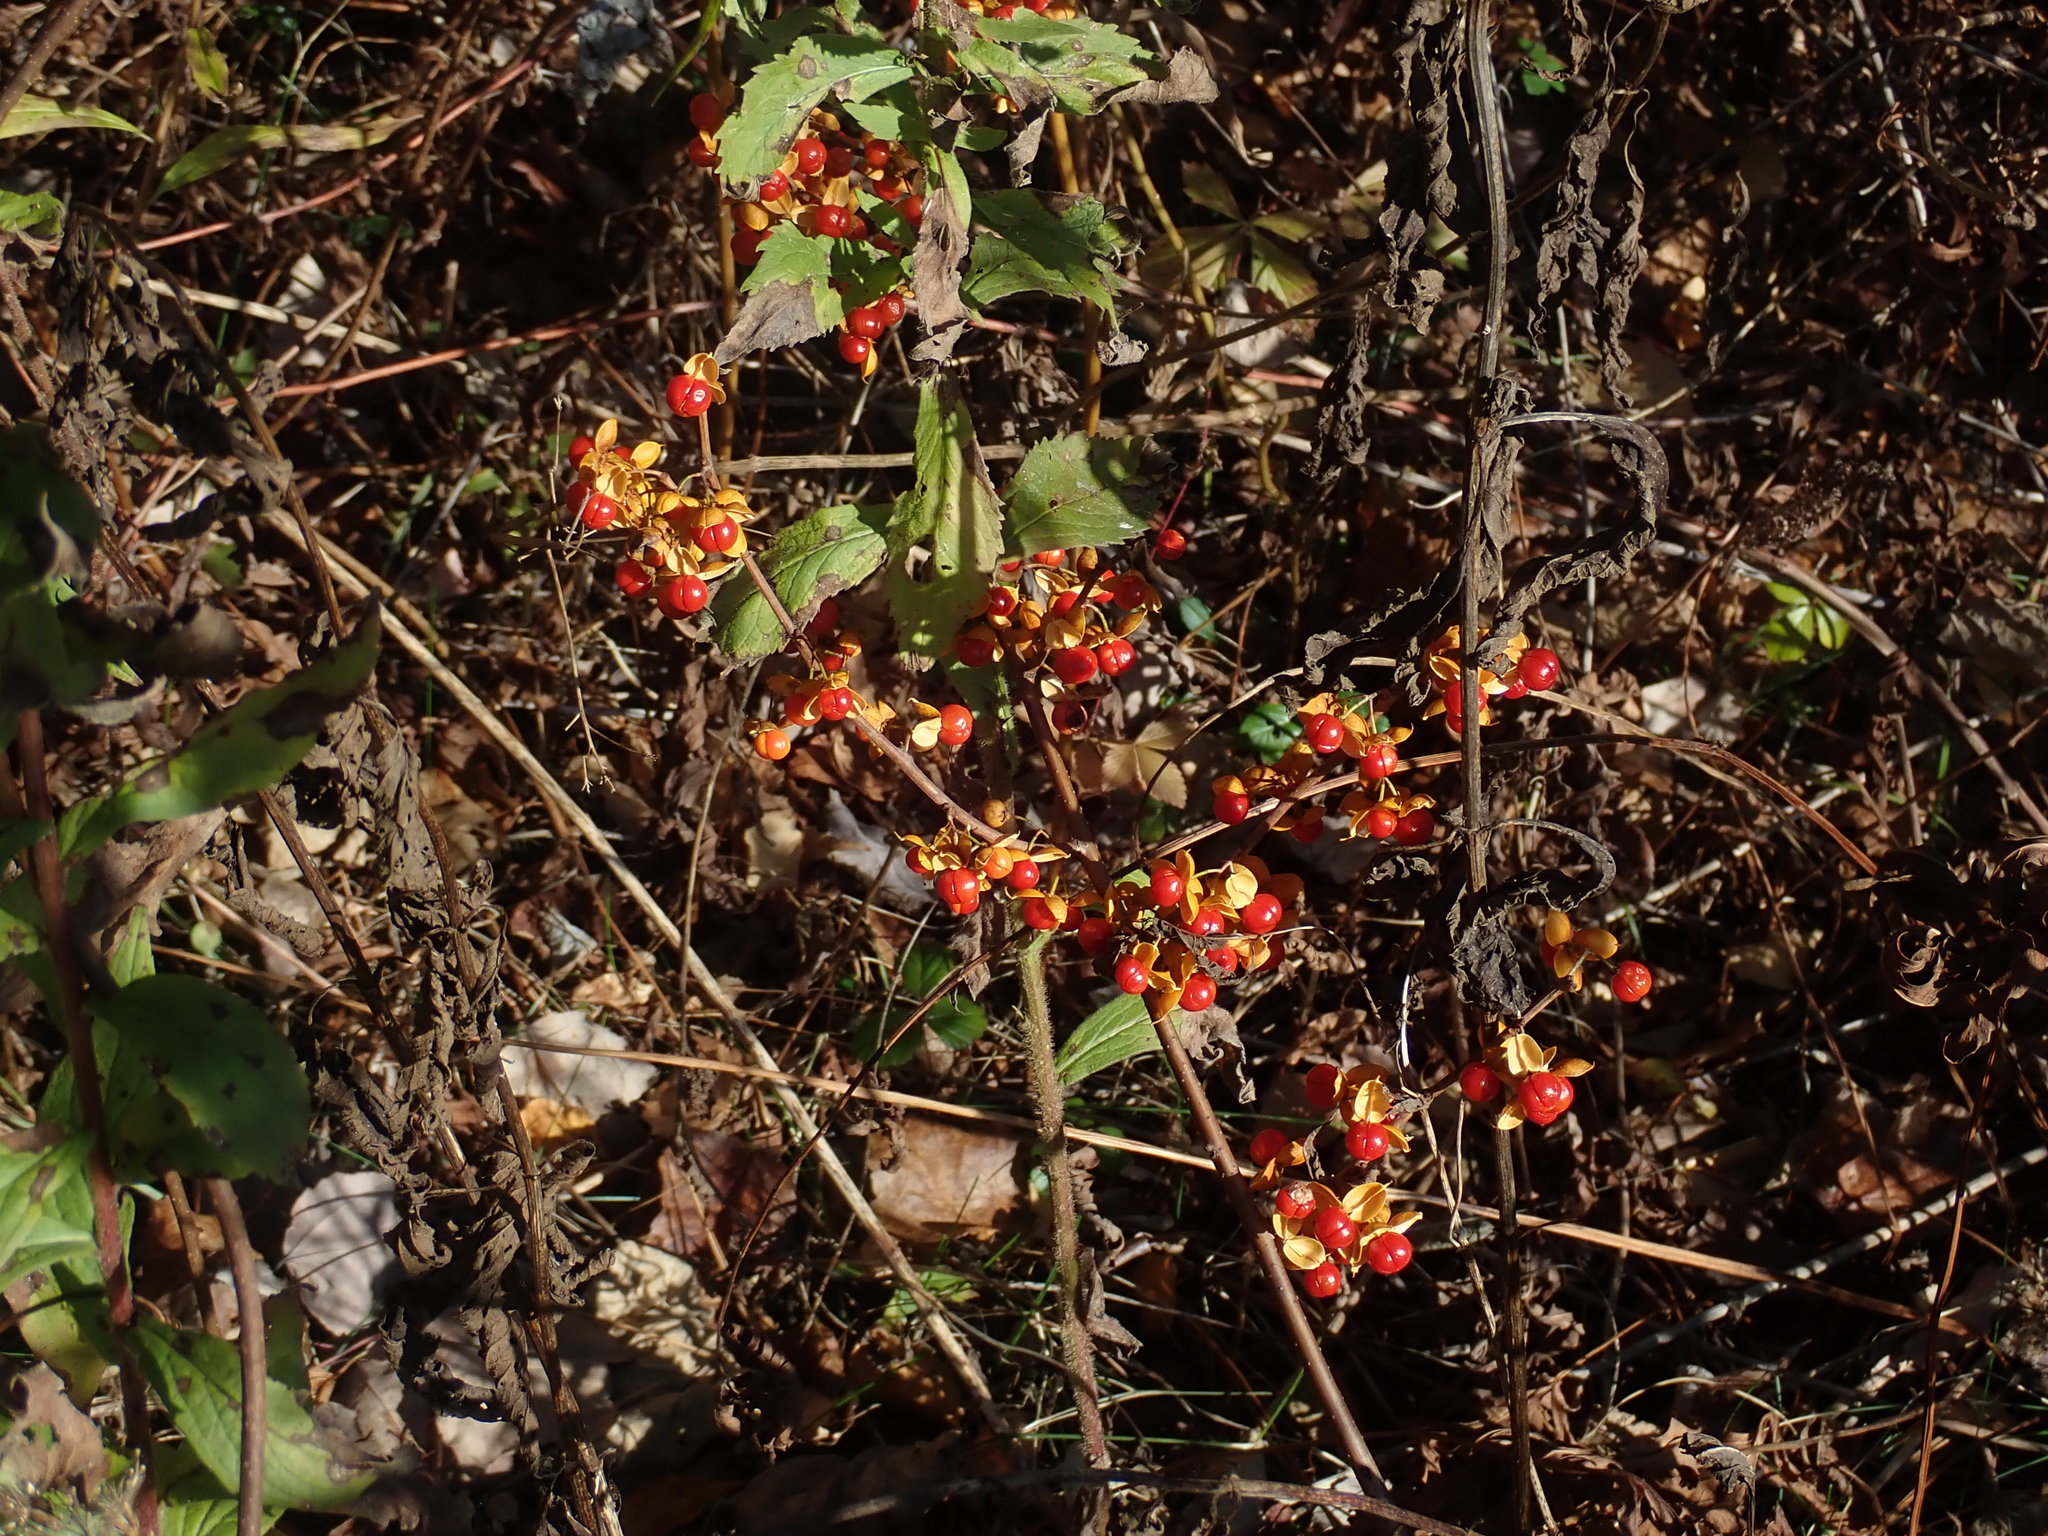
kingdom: Plantae
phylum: Tracheophyta
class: Magnoliopsida
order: Celastrales
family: Celastraceae
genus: Celastrus
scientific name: Celastrus orbiculatus
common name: Oriental bittersweet
